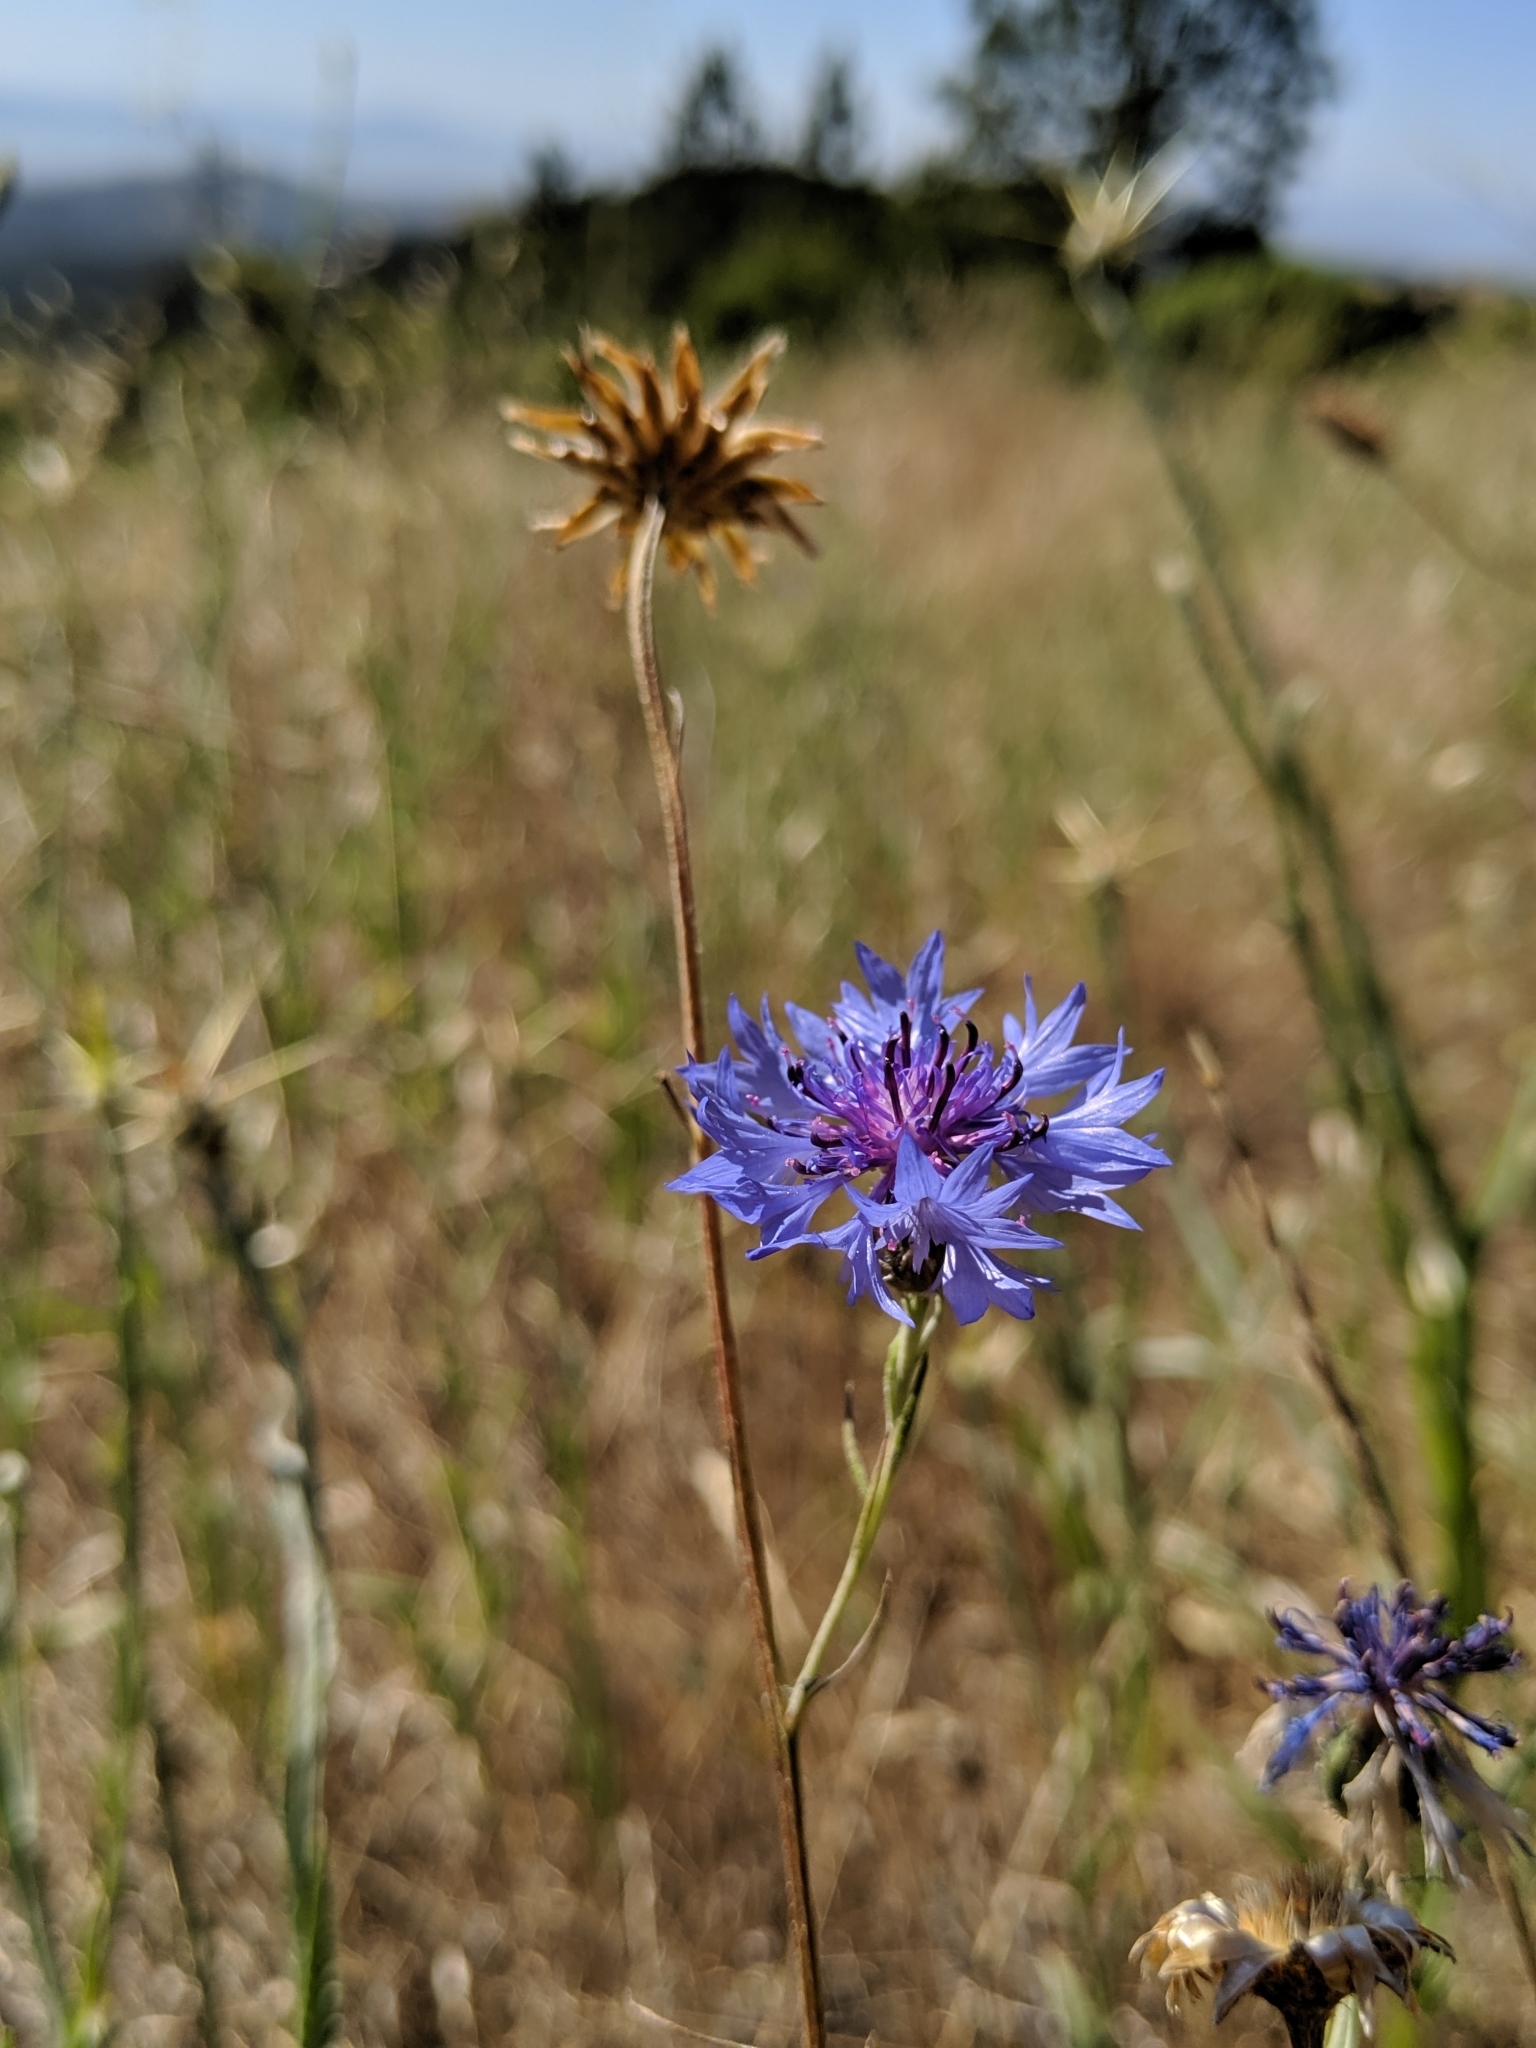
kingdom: Plantae
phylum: Tracheophyta
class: Magnoliopsida
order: Asterales
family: Asteraceae
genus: Centaurea
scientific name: Centaurea cyanus
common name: Cornflower
